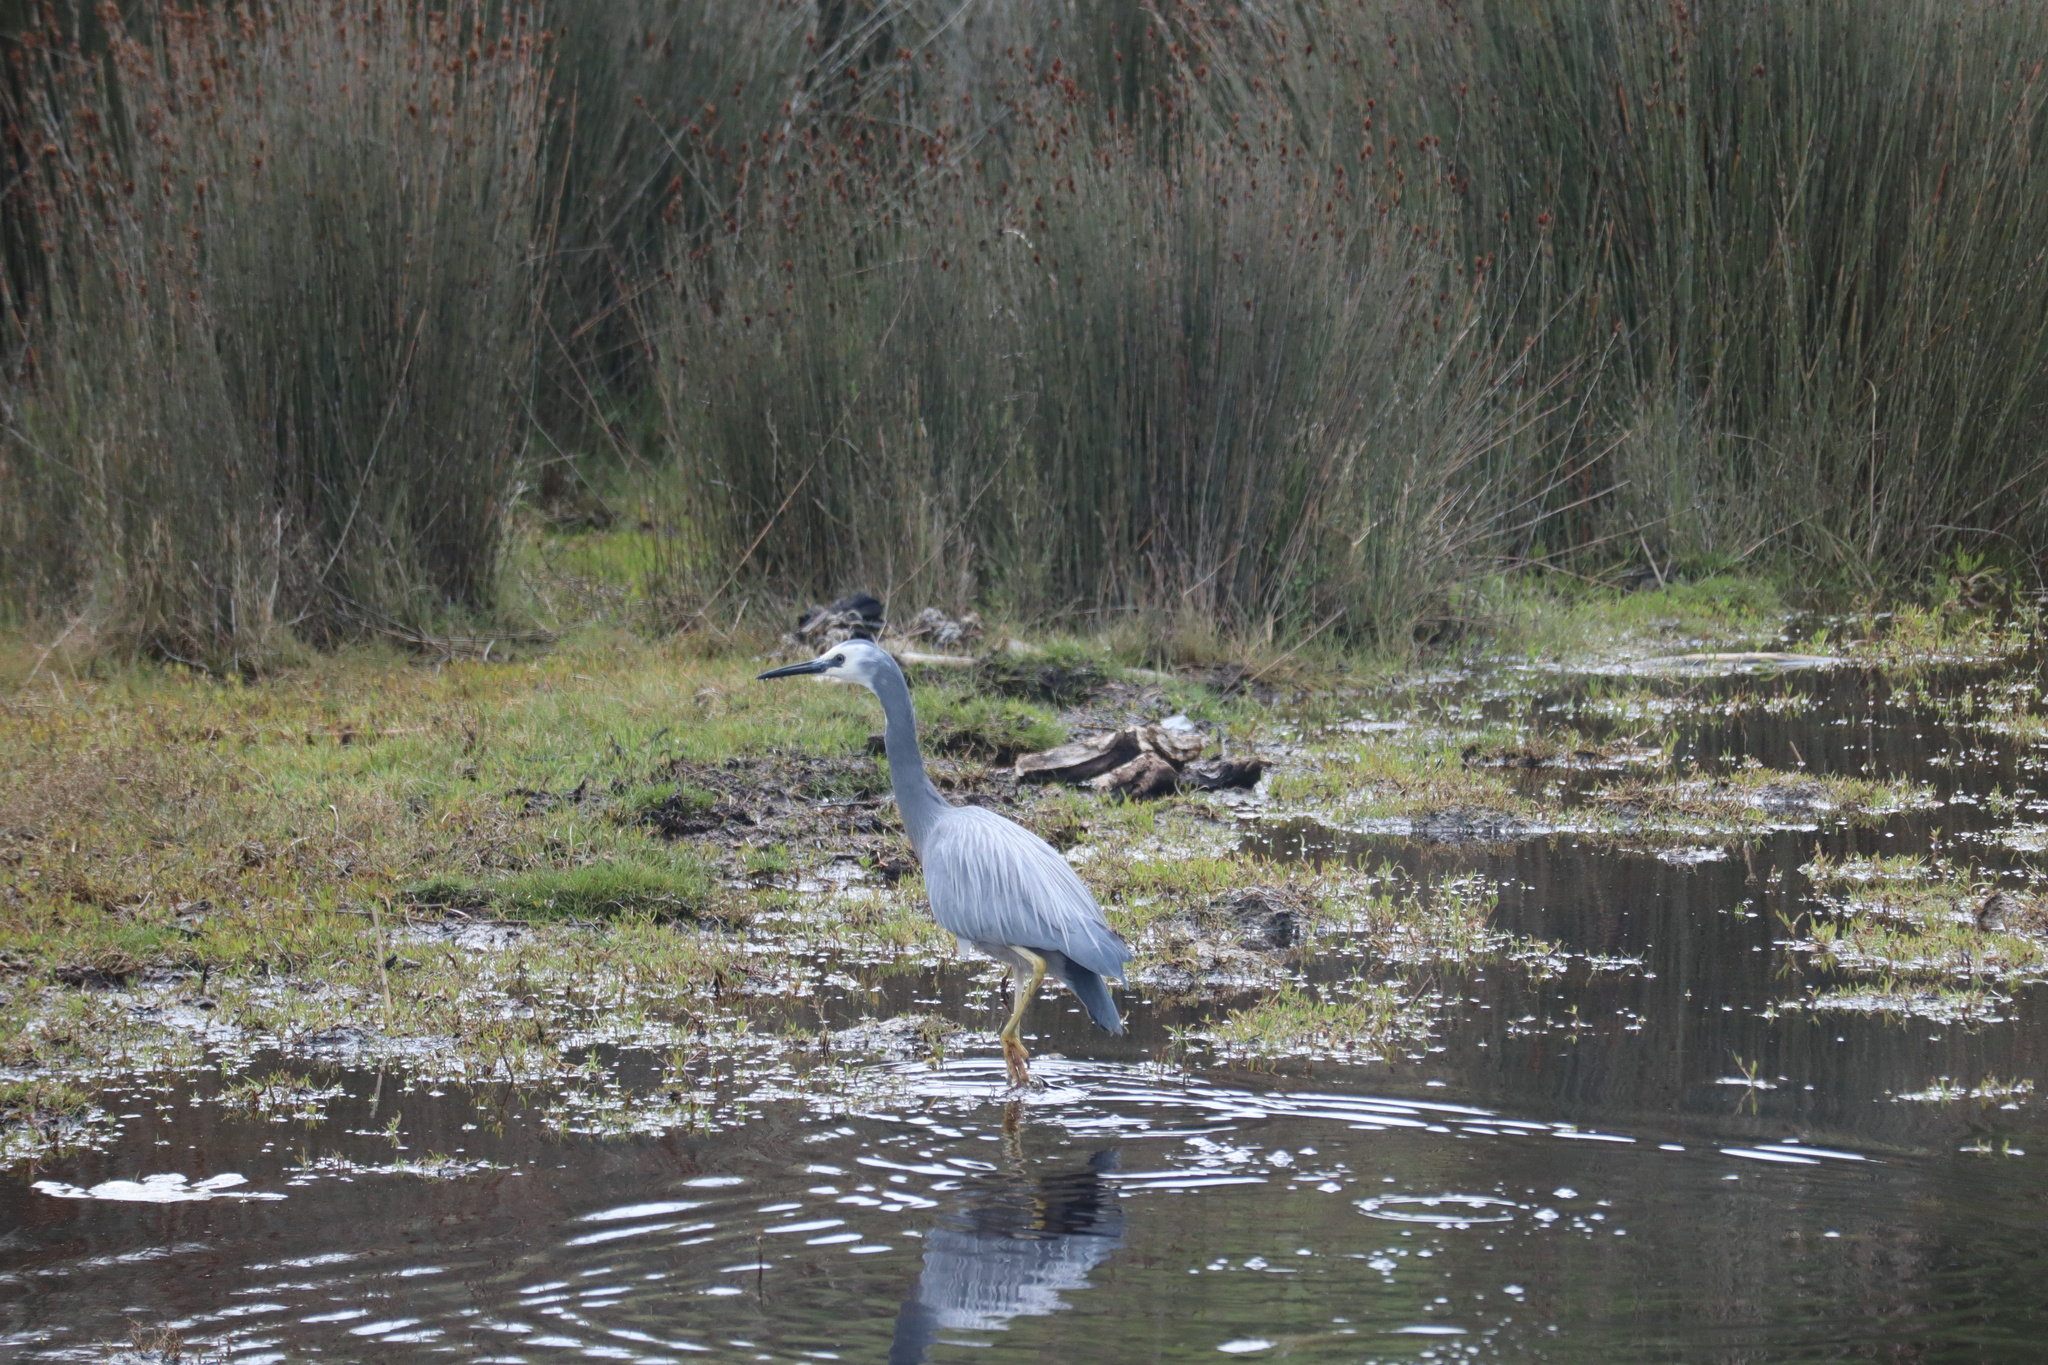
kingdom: Animalia
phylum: Chordata
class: Aves
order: Pelecaniformes
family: Ardeidae
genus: Egretta
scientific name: Egretta novaehollandiae
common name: White-faced heron
